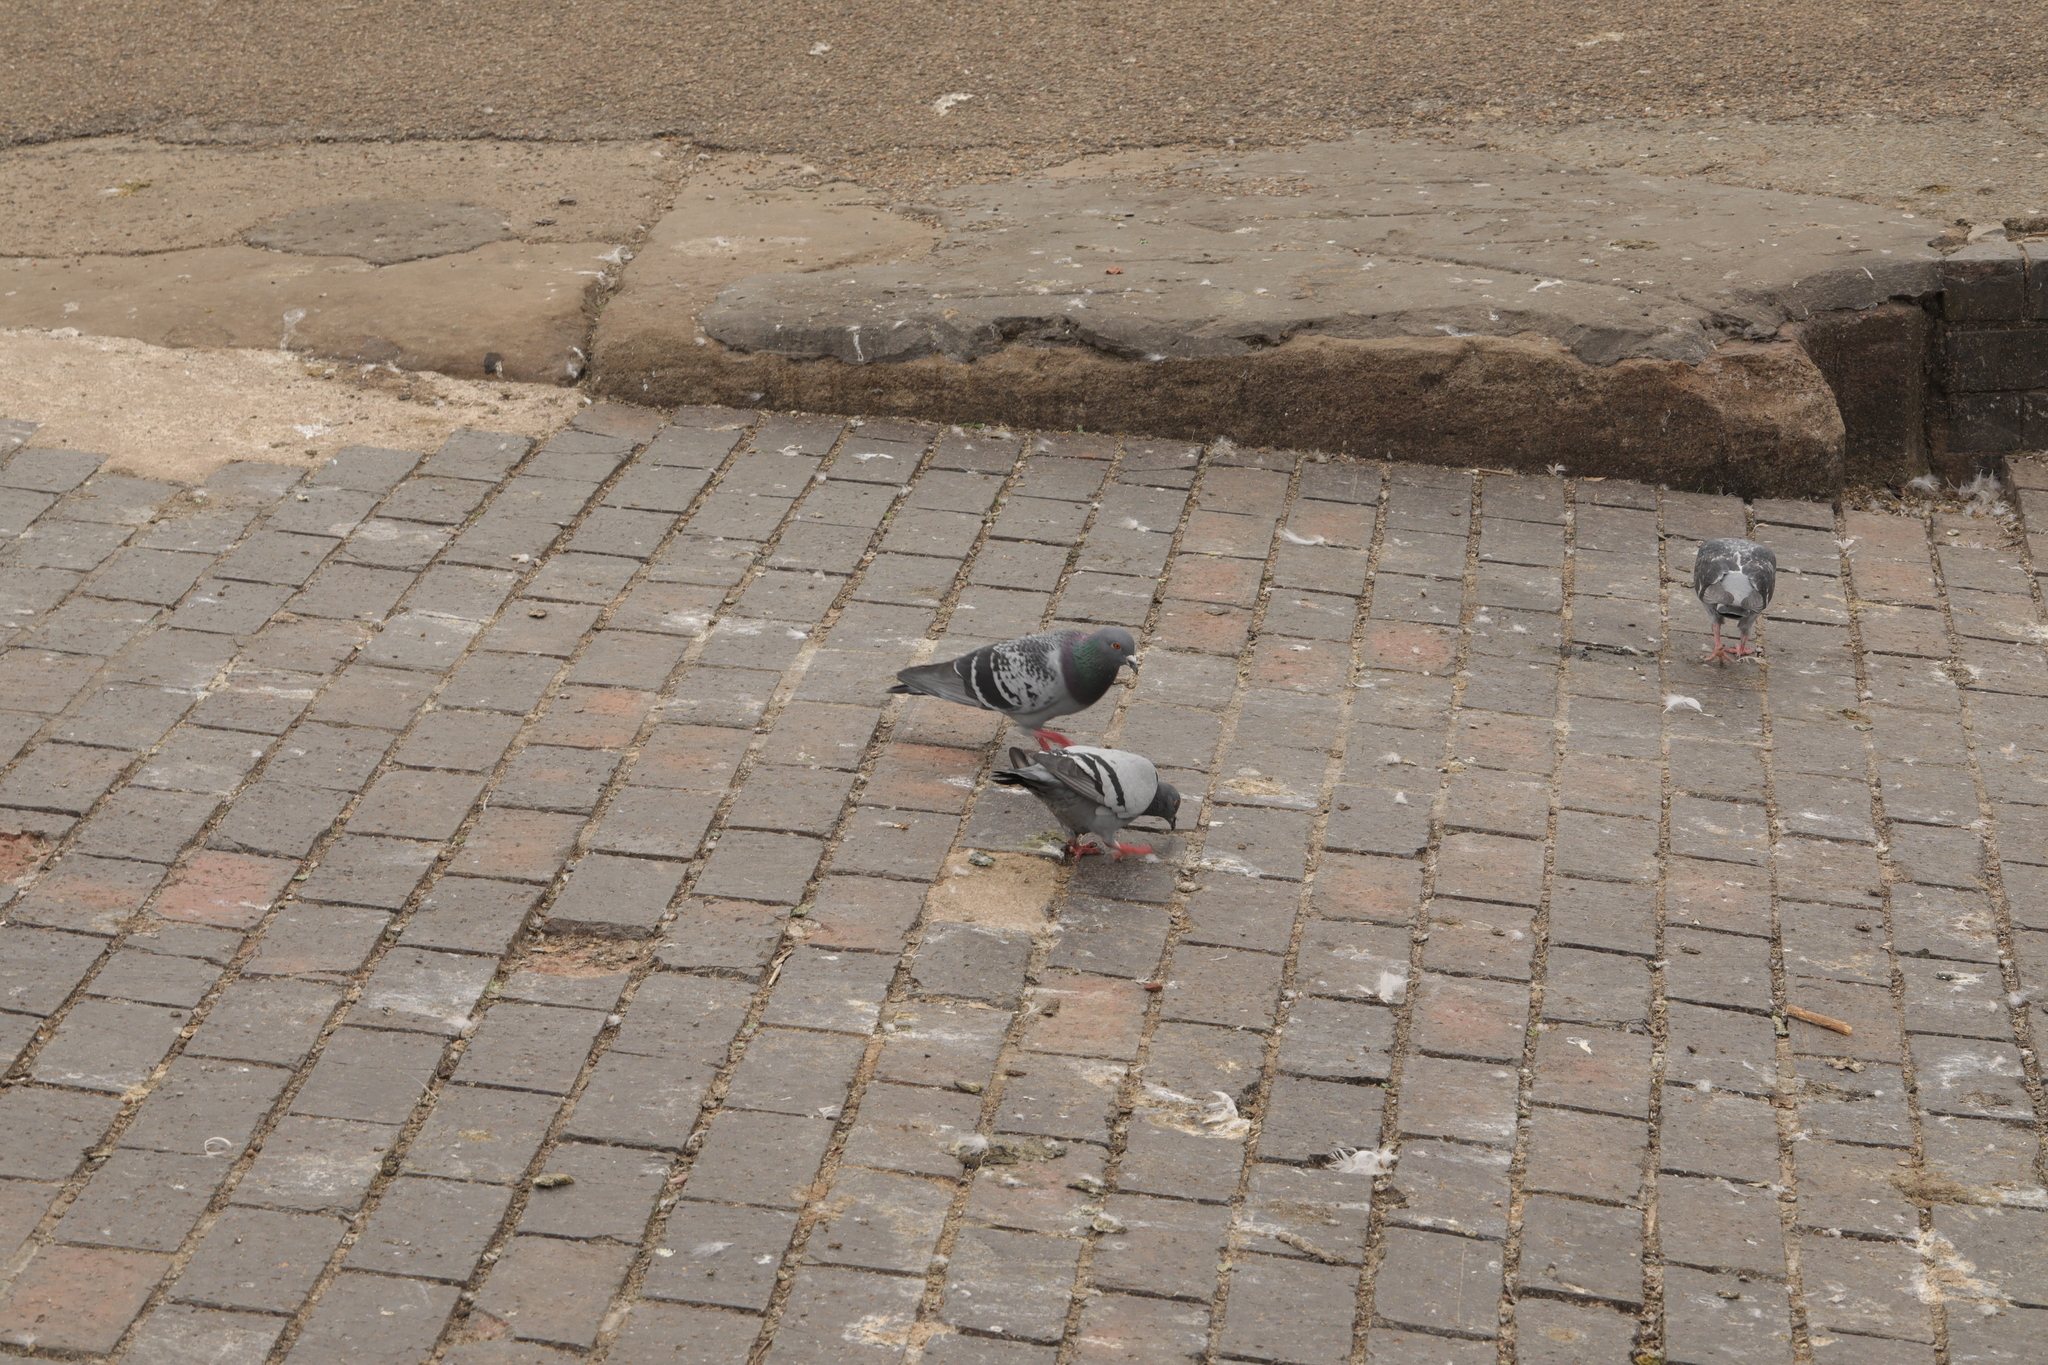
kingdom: Animalia
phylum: Chordata
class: Aves
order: Columbiformes
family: Columbidae
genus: Columba
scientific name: Columba livia
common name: Rock pigeon
